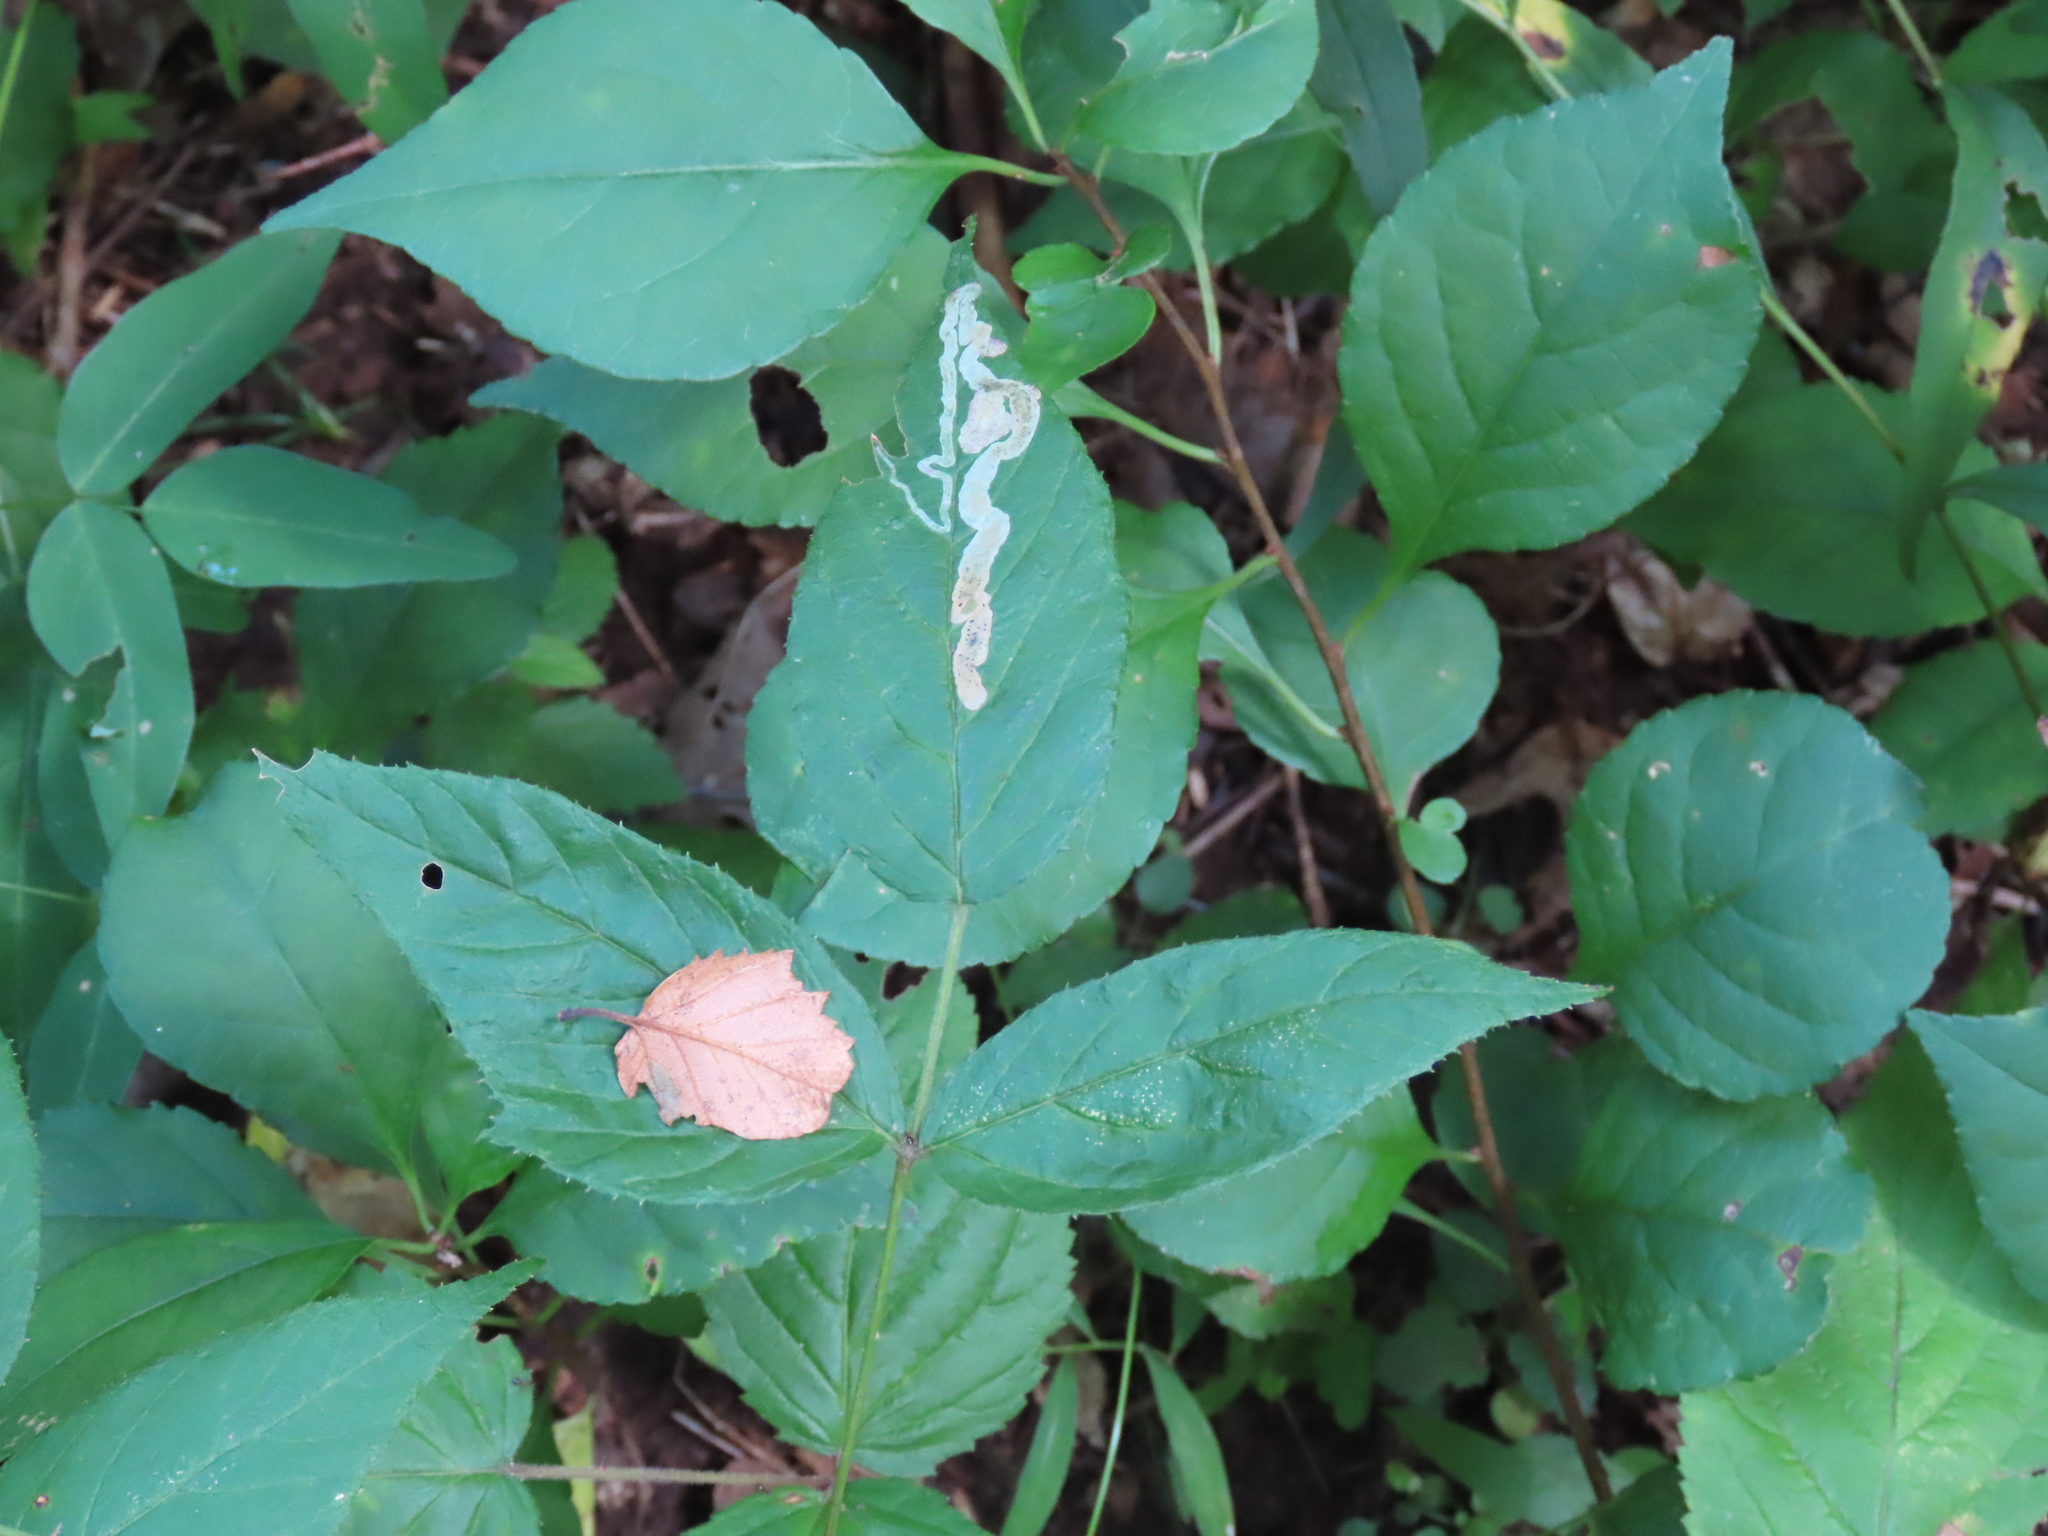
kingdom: Animalia
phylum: Arthropoda
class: Insecta
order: Diptera
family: Agromyzidae
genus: Agromyza
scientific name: Agromyza vockerothi
